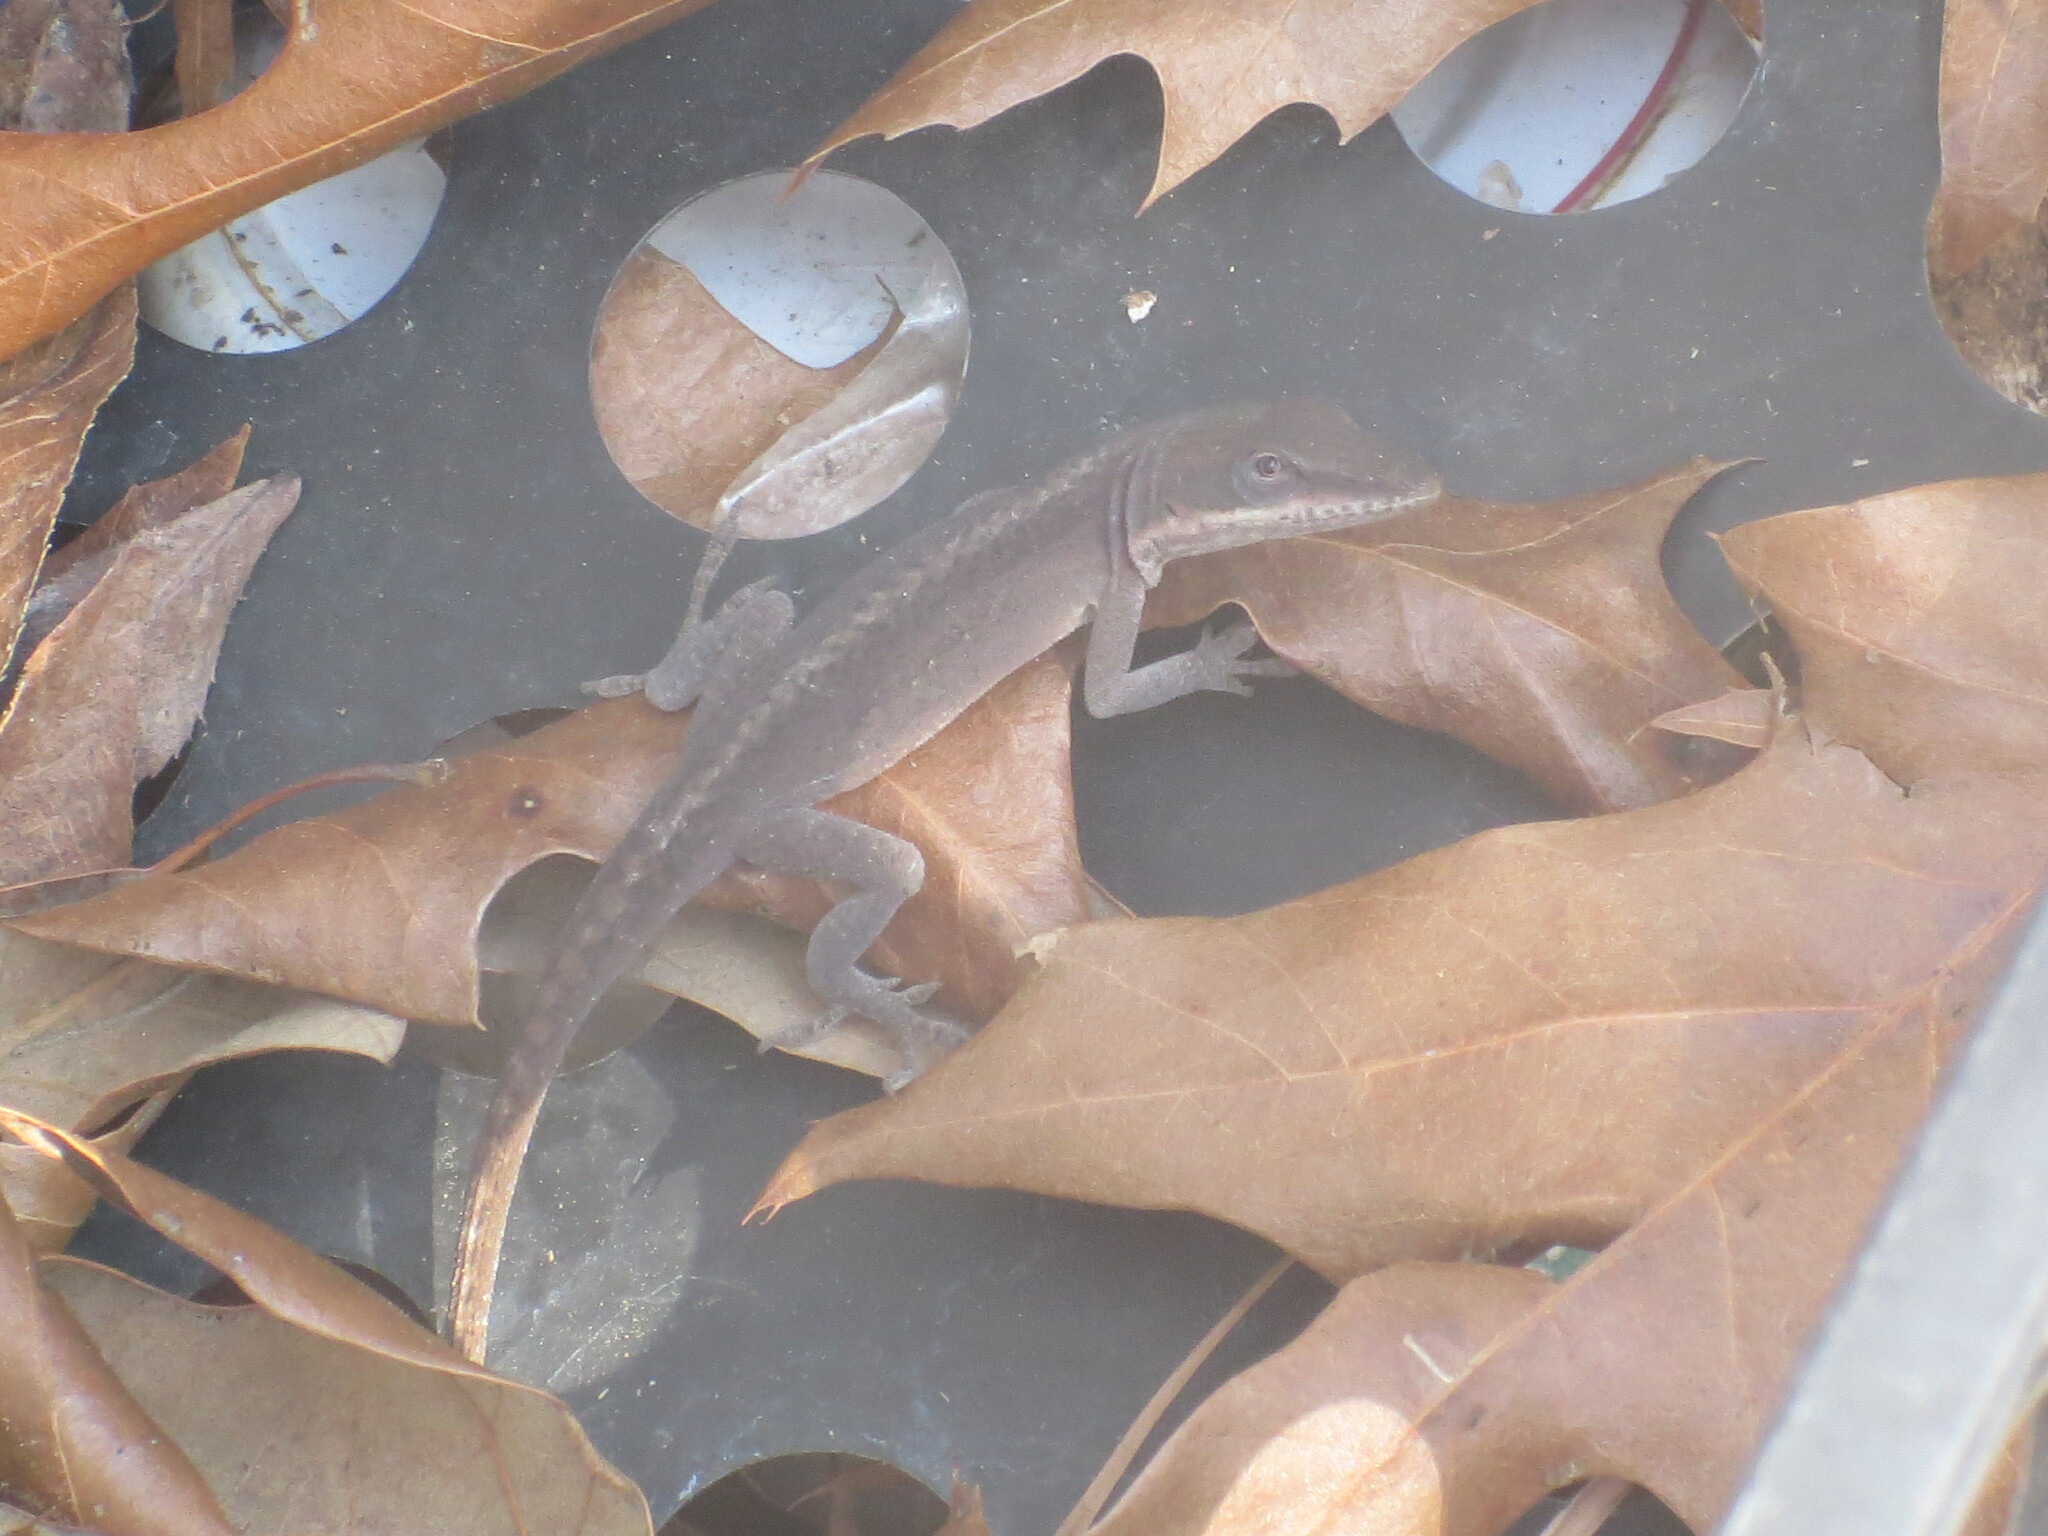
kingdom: Animalia
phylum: Chordata
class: Squamata
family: Dactyloidae
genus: Anolis
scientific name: Anolis carolinensis
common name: Green anole
